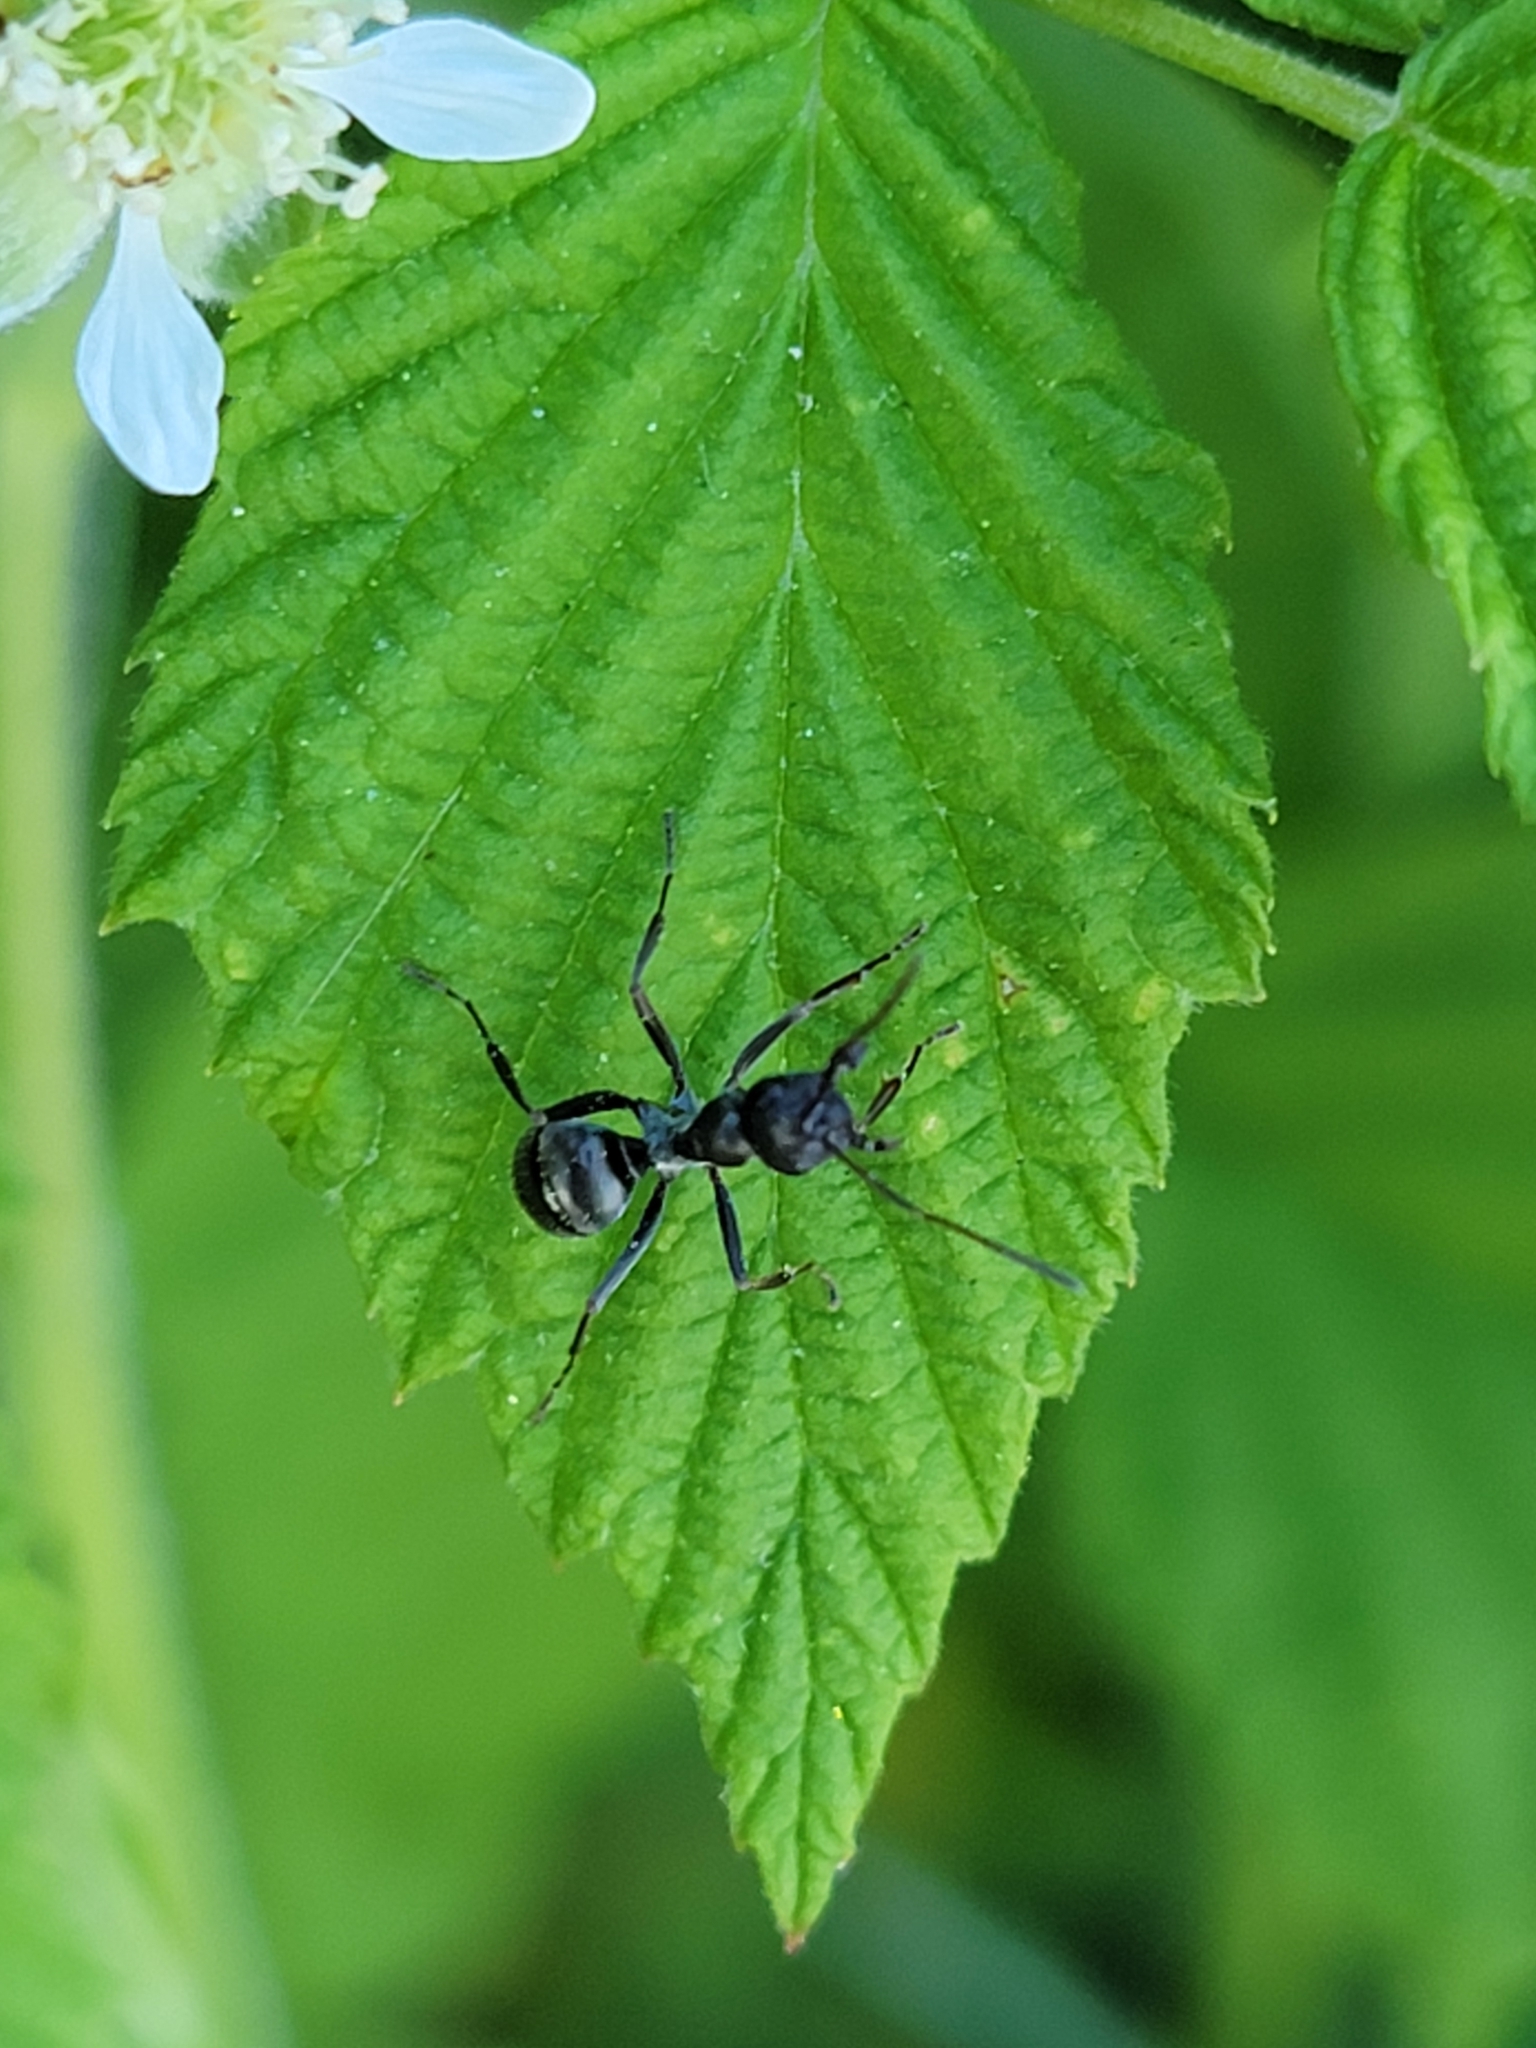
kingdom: Animalia
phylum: Arthropoda
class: Insecta
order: Hymenoptera
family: Formicidae
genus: Formica
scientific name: Formica subsericea
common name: Silky field ant
